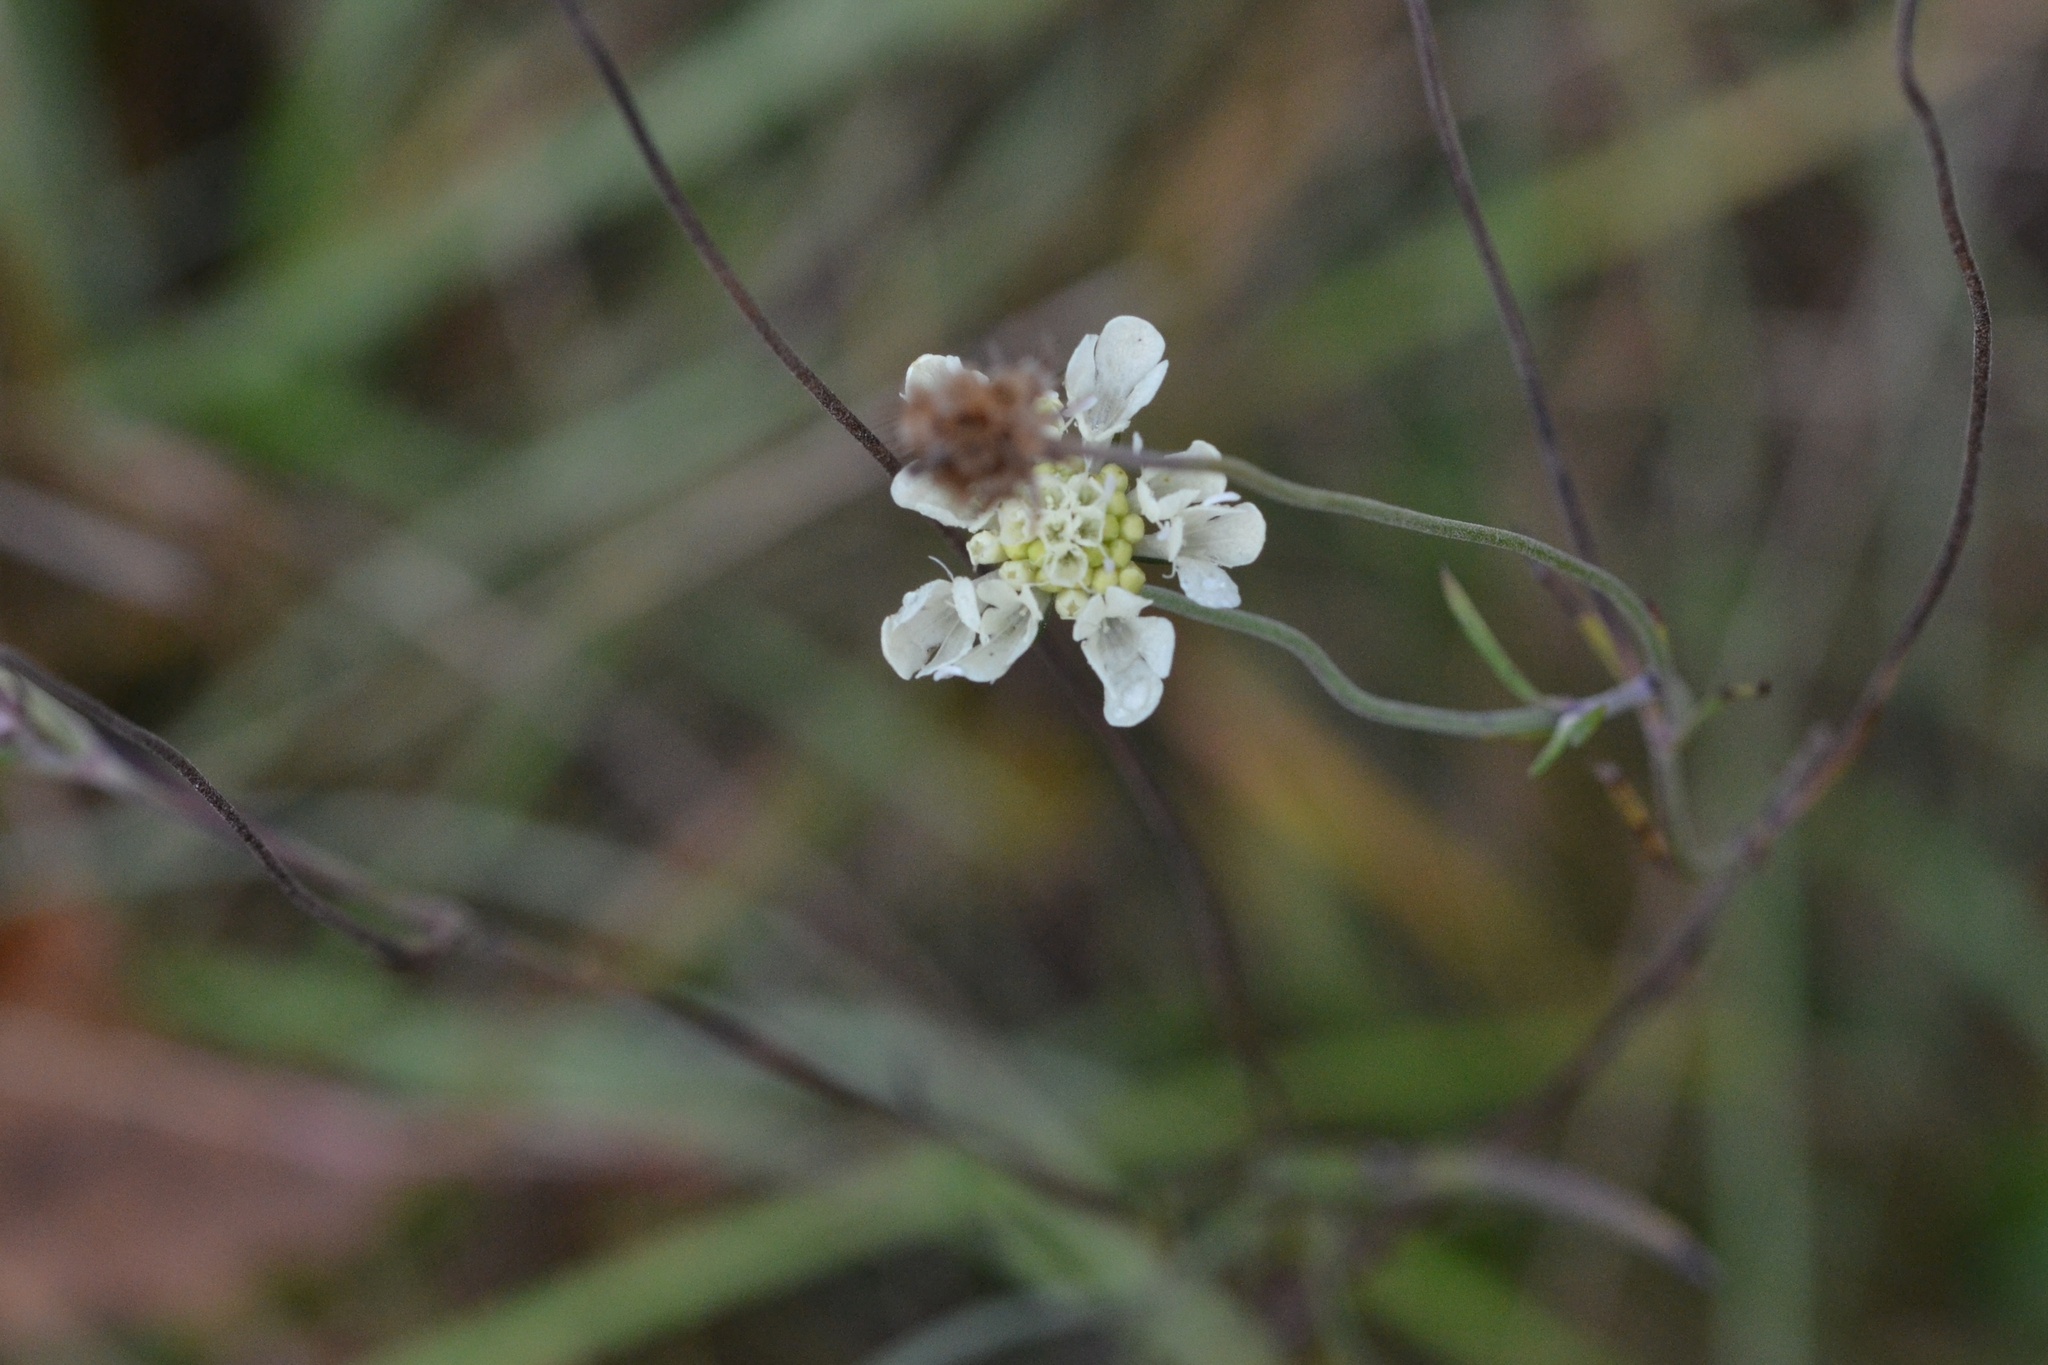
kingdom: Plantae
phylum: Tracheophyta
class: Magnoliopsida
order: Dipsacales
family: Caprifoliaceae
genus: Scabiosa
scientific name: Scabiosa ochroleuca
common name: Cream pincushions
